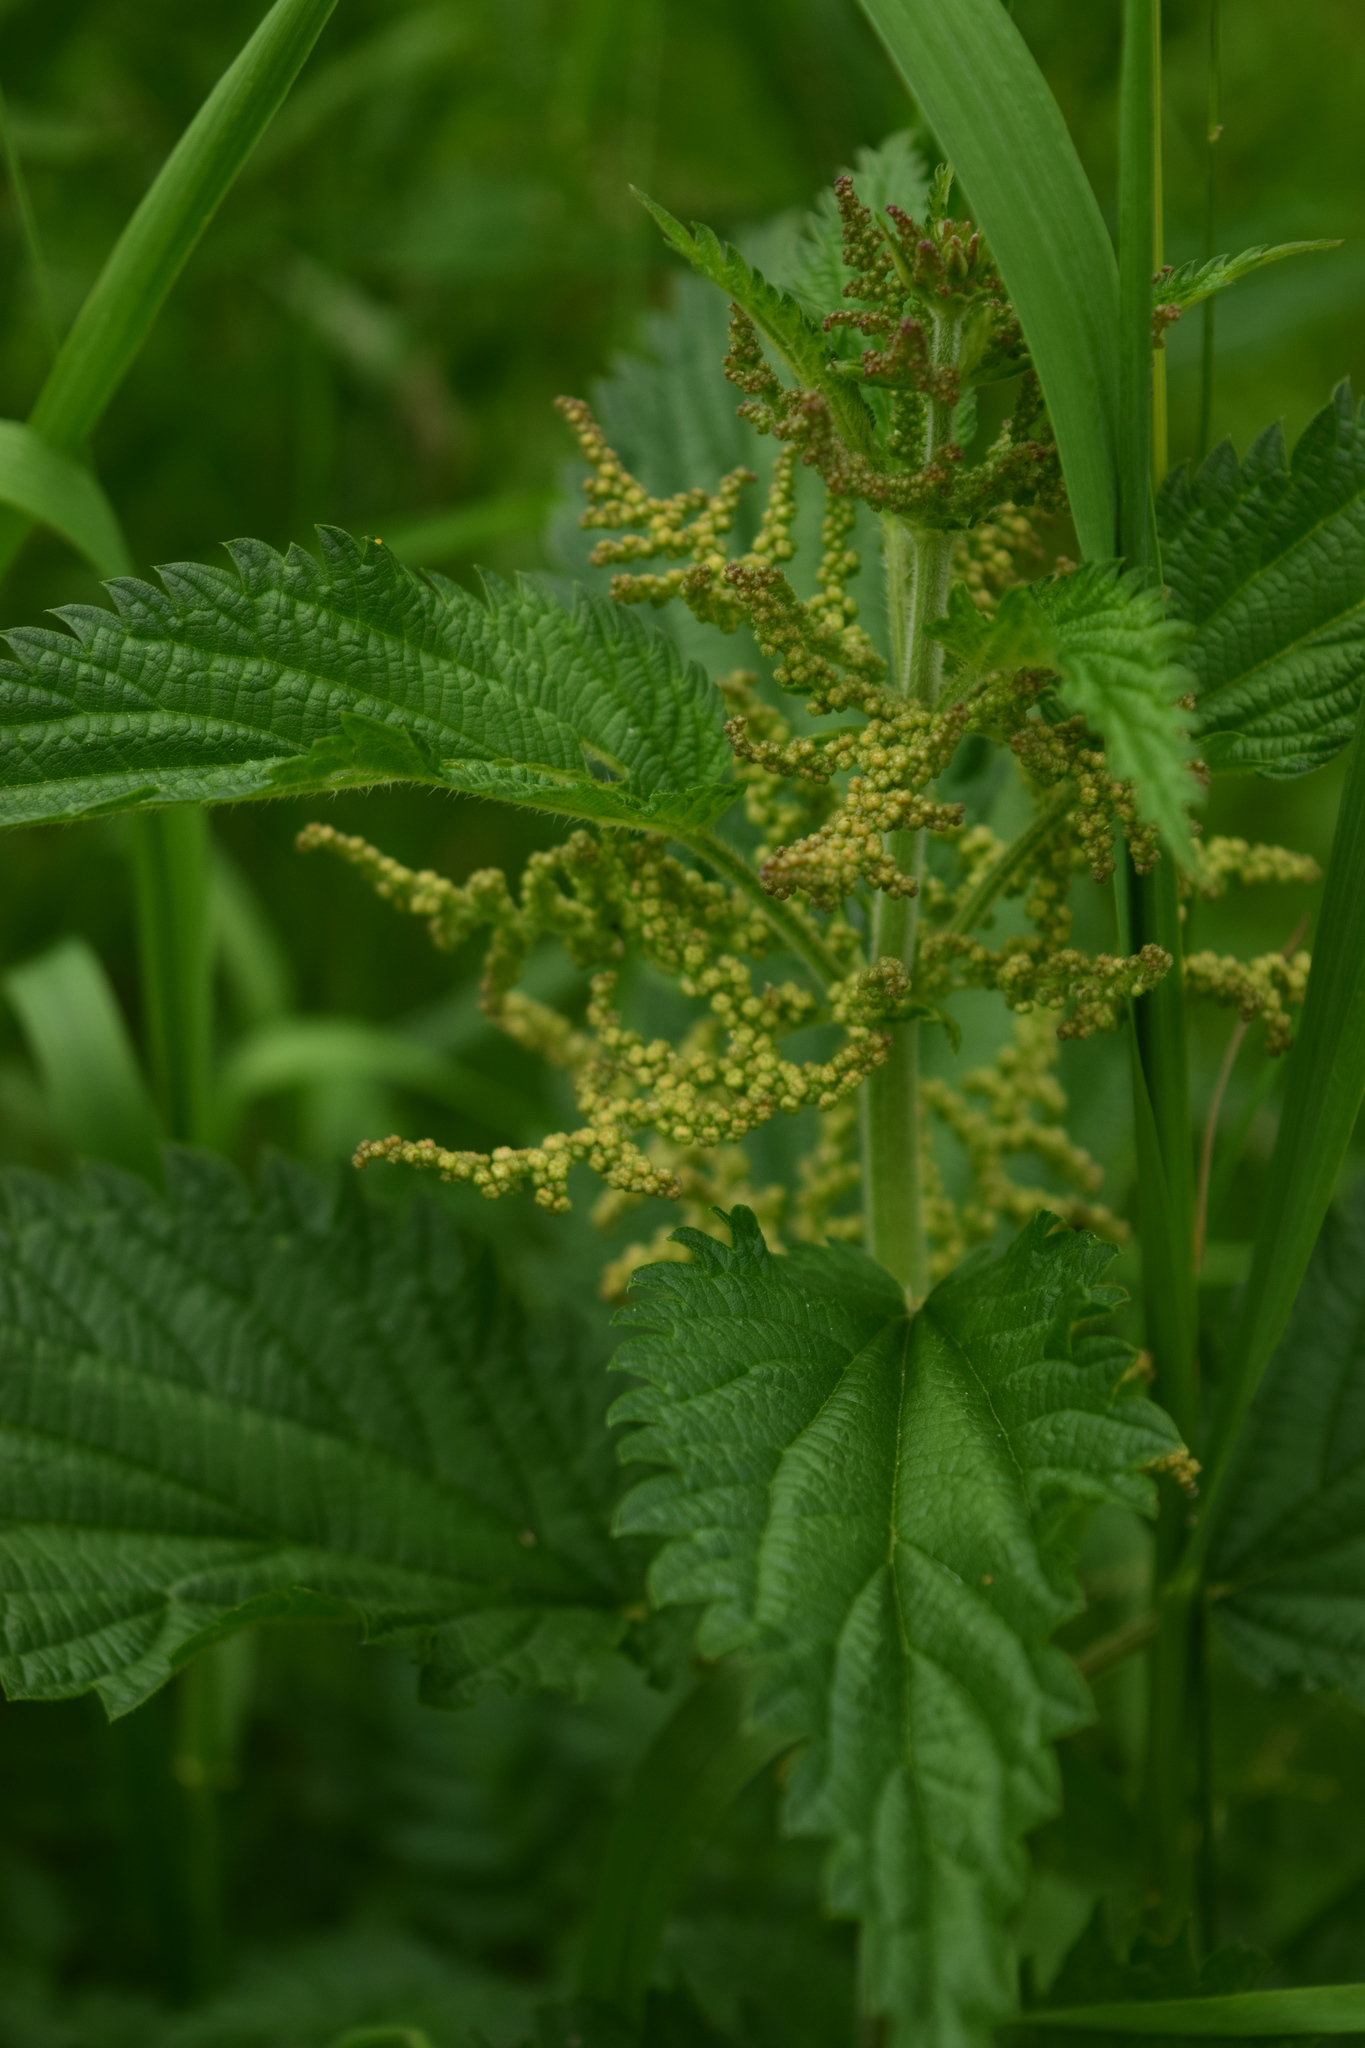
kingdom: Plantae
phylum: Tracheophyta
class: Magnoliopsida
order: Rosales
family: Urticaceae
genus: Urtica
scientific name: Urtica dioica
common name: Common nettle
